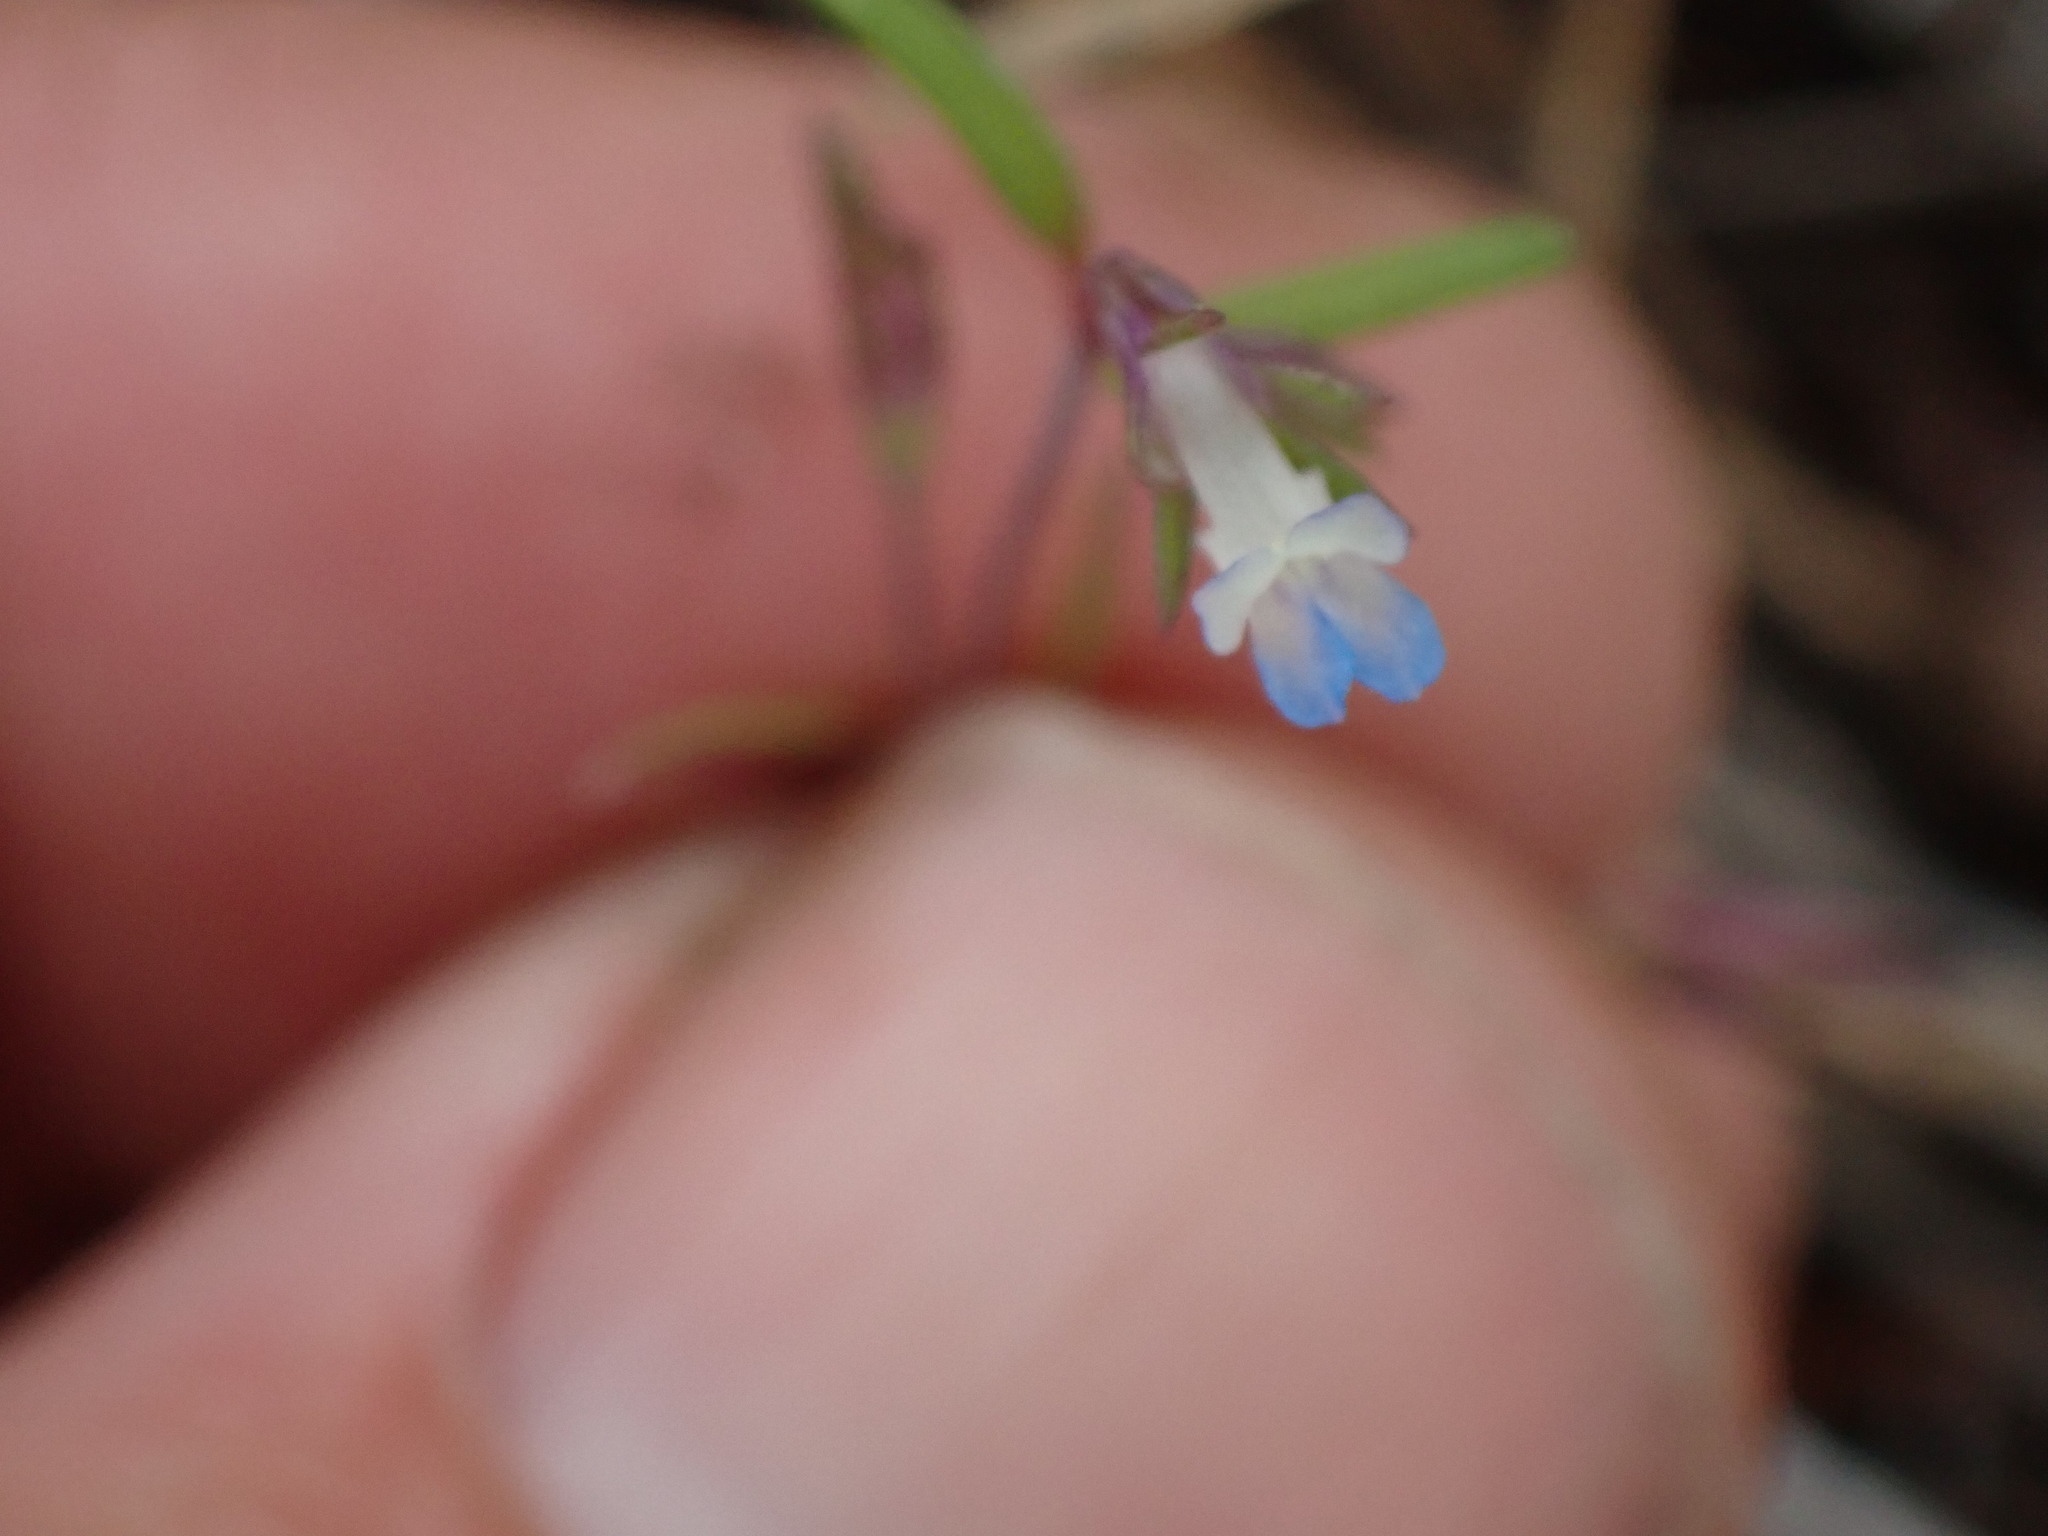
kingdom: Plantae
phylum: Tracheophyta
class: Magnoliopsida
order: Lamiales
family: Plantaginaceae
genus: Collinsia
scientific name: Collinsia parviflora
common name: Blue-lips
